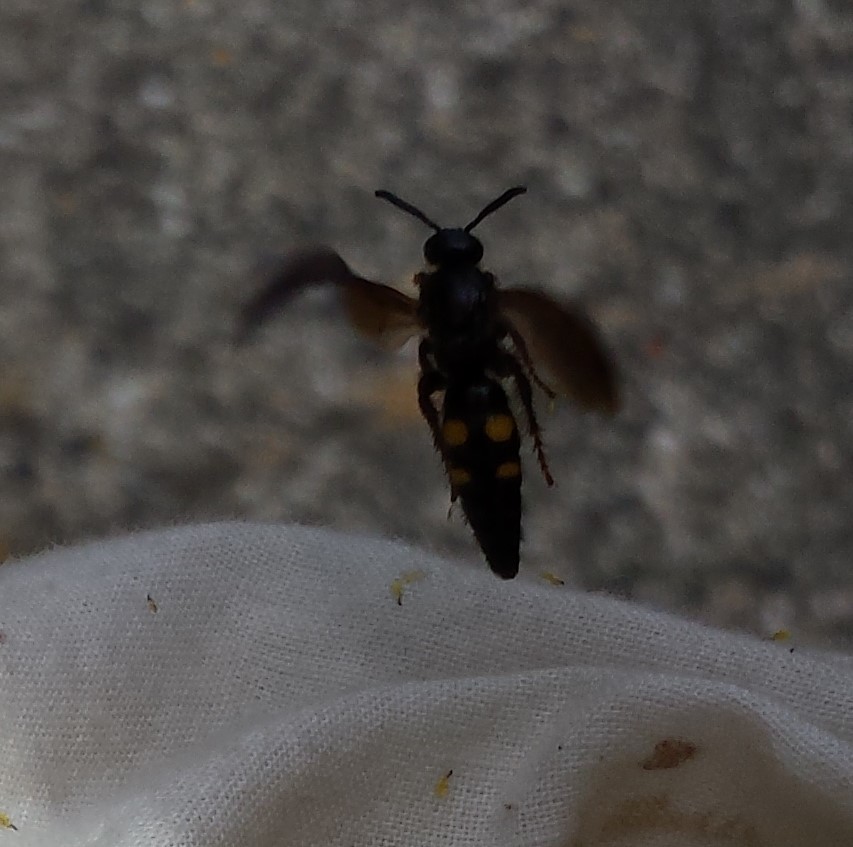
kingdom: Animalia
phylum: Arthropoda
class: Insecta
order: Hymenoptera
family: Scoliidae
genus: Scolia
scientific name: Scolia nobilitata
